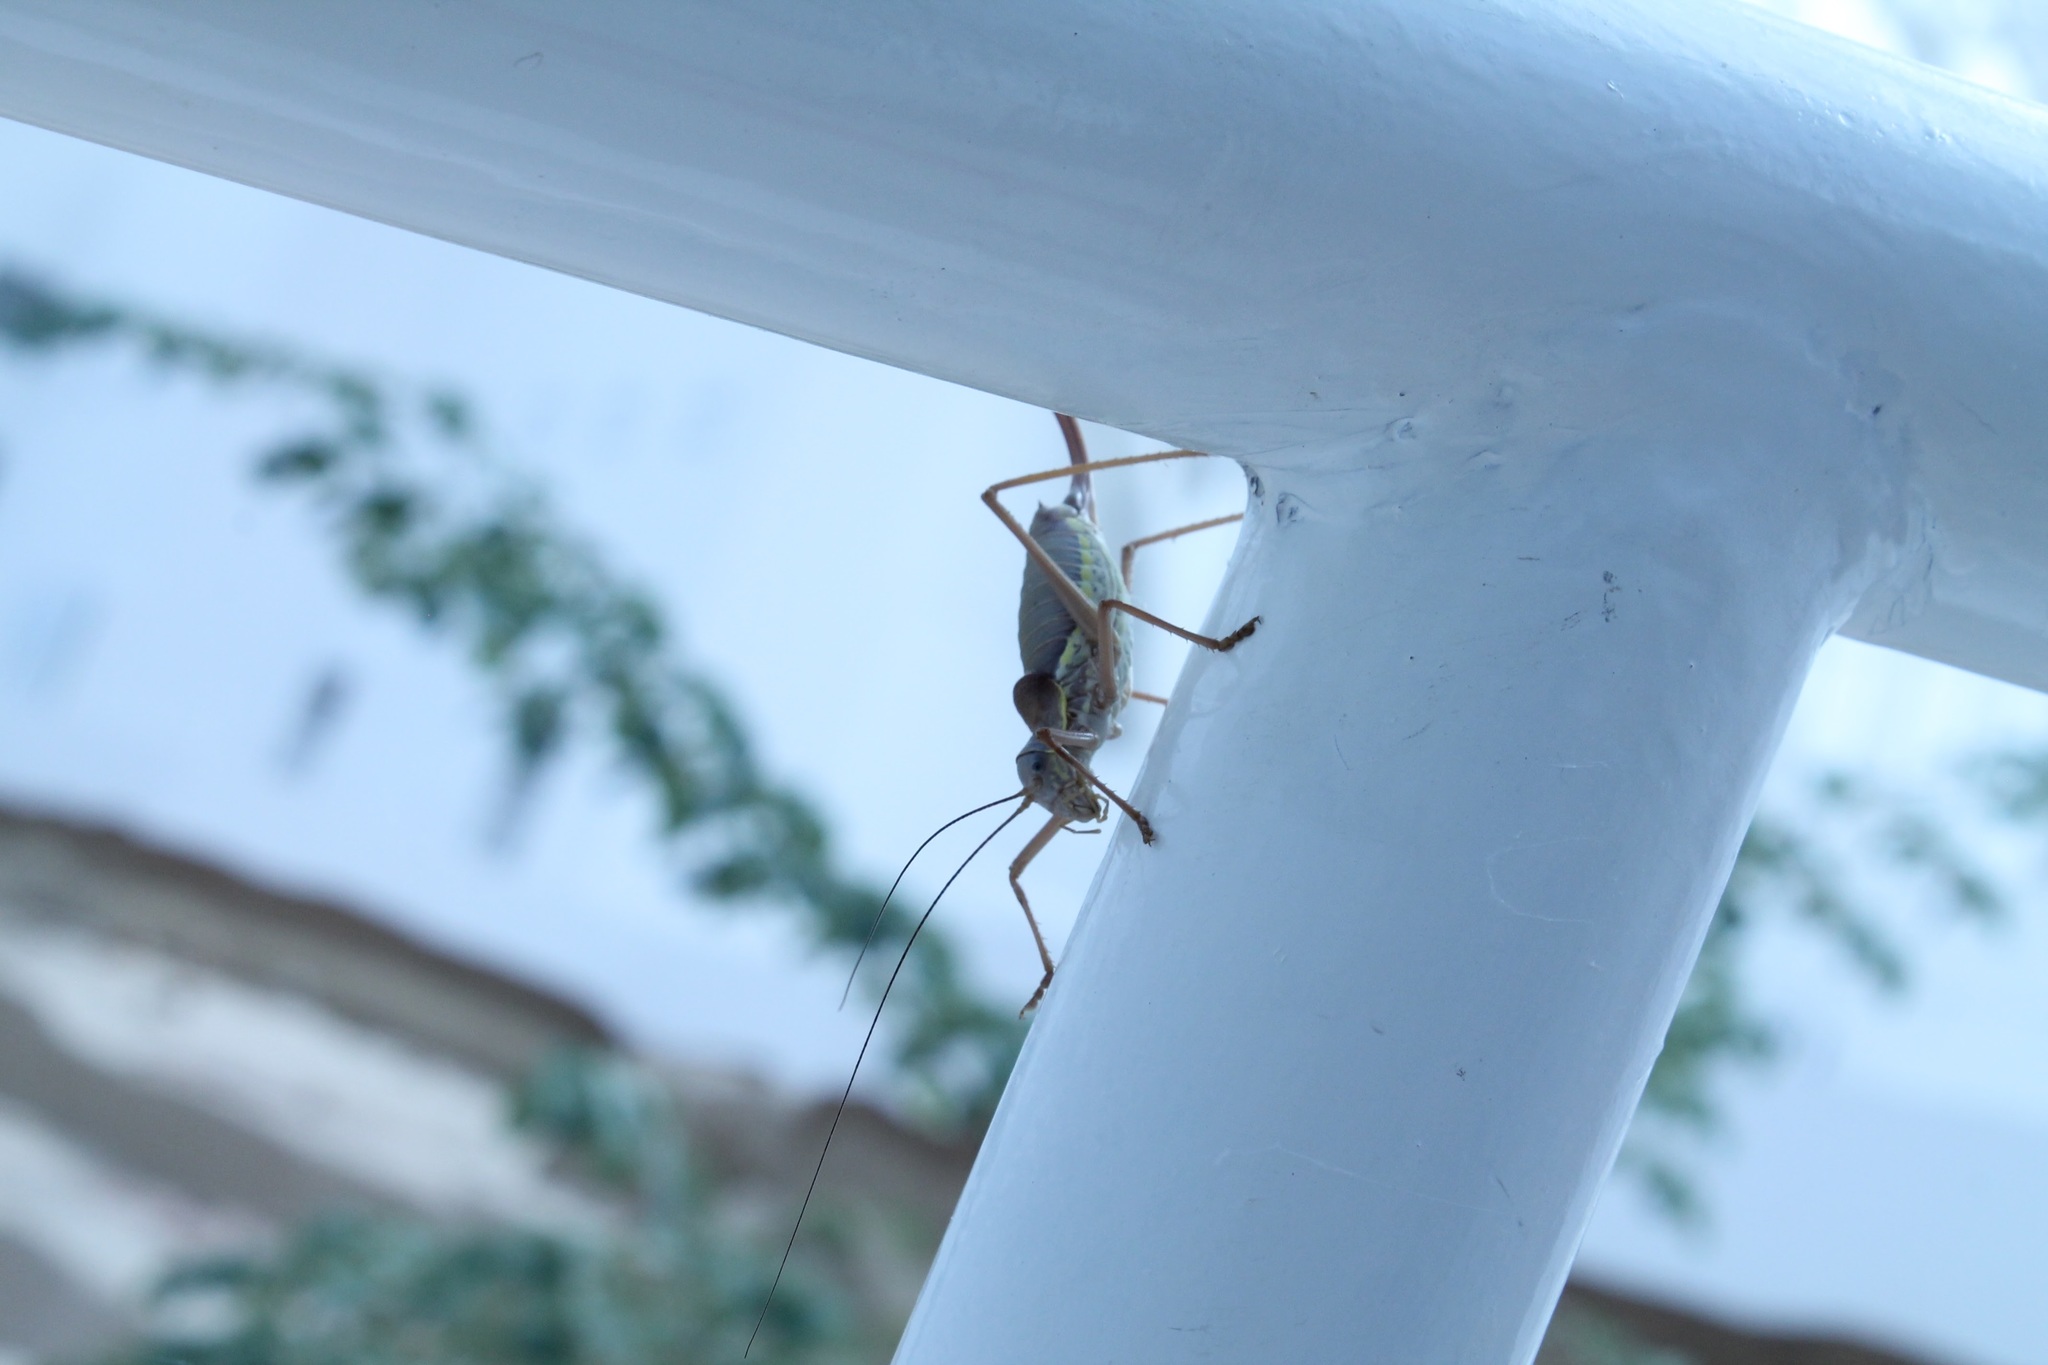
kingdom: Animalia
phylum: Arthropoda
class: Insecta
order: Orthoptera
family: Tettigoniidae
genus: Ephippiger
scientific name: Ephippiger ephippiger
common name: Eastern saddle bush-cricket
